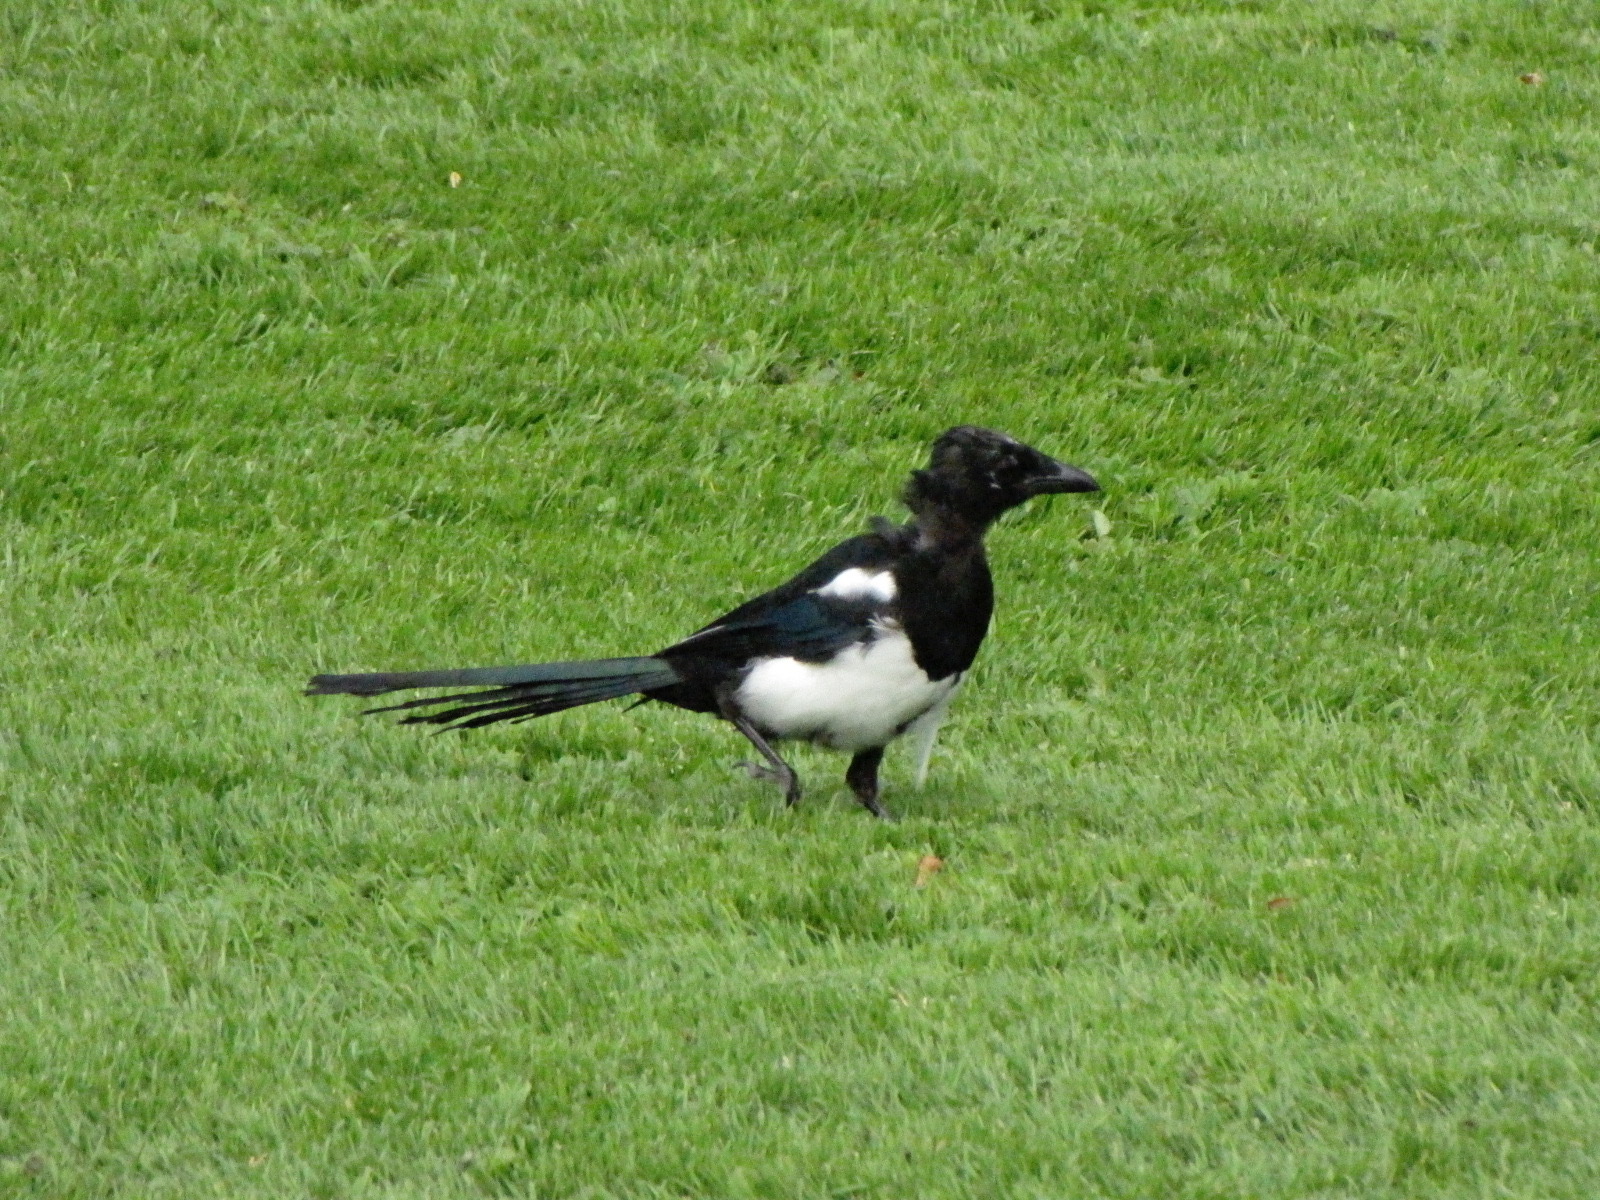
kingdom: Animalia
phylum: Chordata
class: Aves
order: Passeriformes
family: Corvidae
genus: Pica
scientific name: Pica pica
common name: Eurasian magpie
